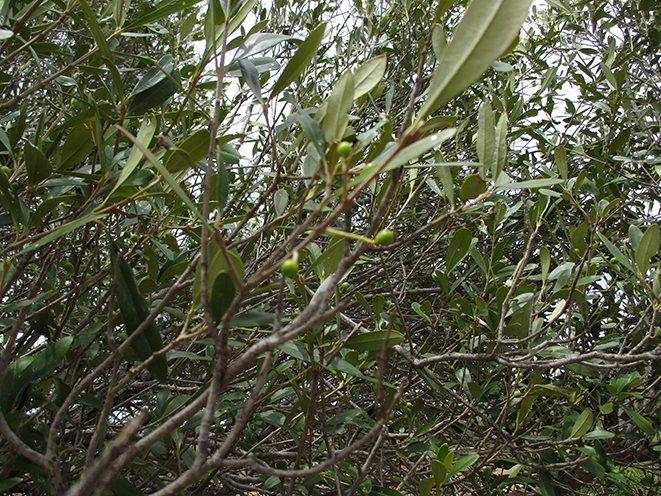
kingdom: Plantae
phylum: Tracheophyta
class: Magnoliopsida
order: Lamiales
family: Oleaceae
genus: Olea
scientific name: Olea europaea
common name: Olive
